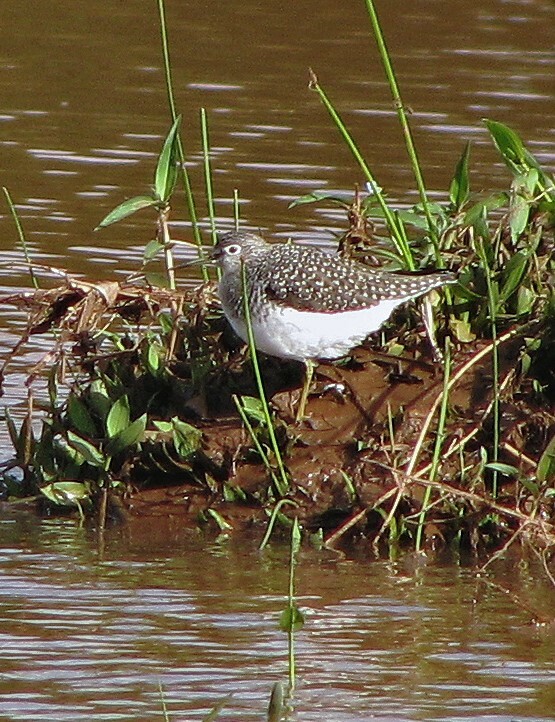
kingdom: Animalia
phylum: Chordata
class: Aves
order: Charadriiformes
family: Scolopacidae
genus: Tringa
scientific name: Tringa solitaria
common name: Solitary sandpiper
